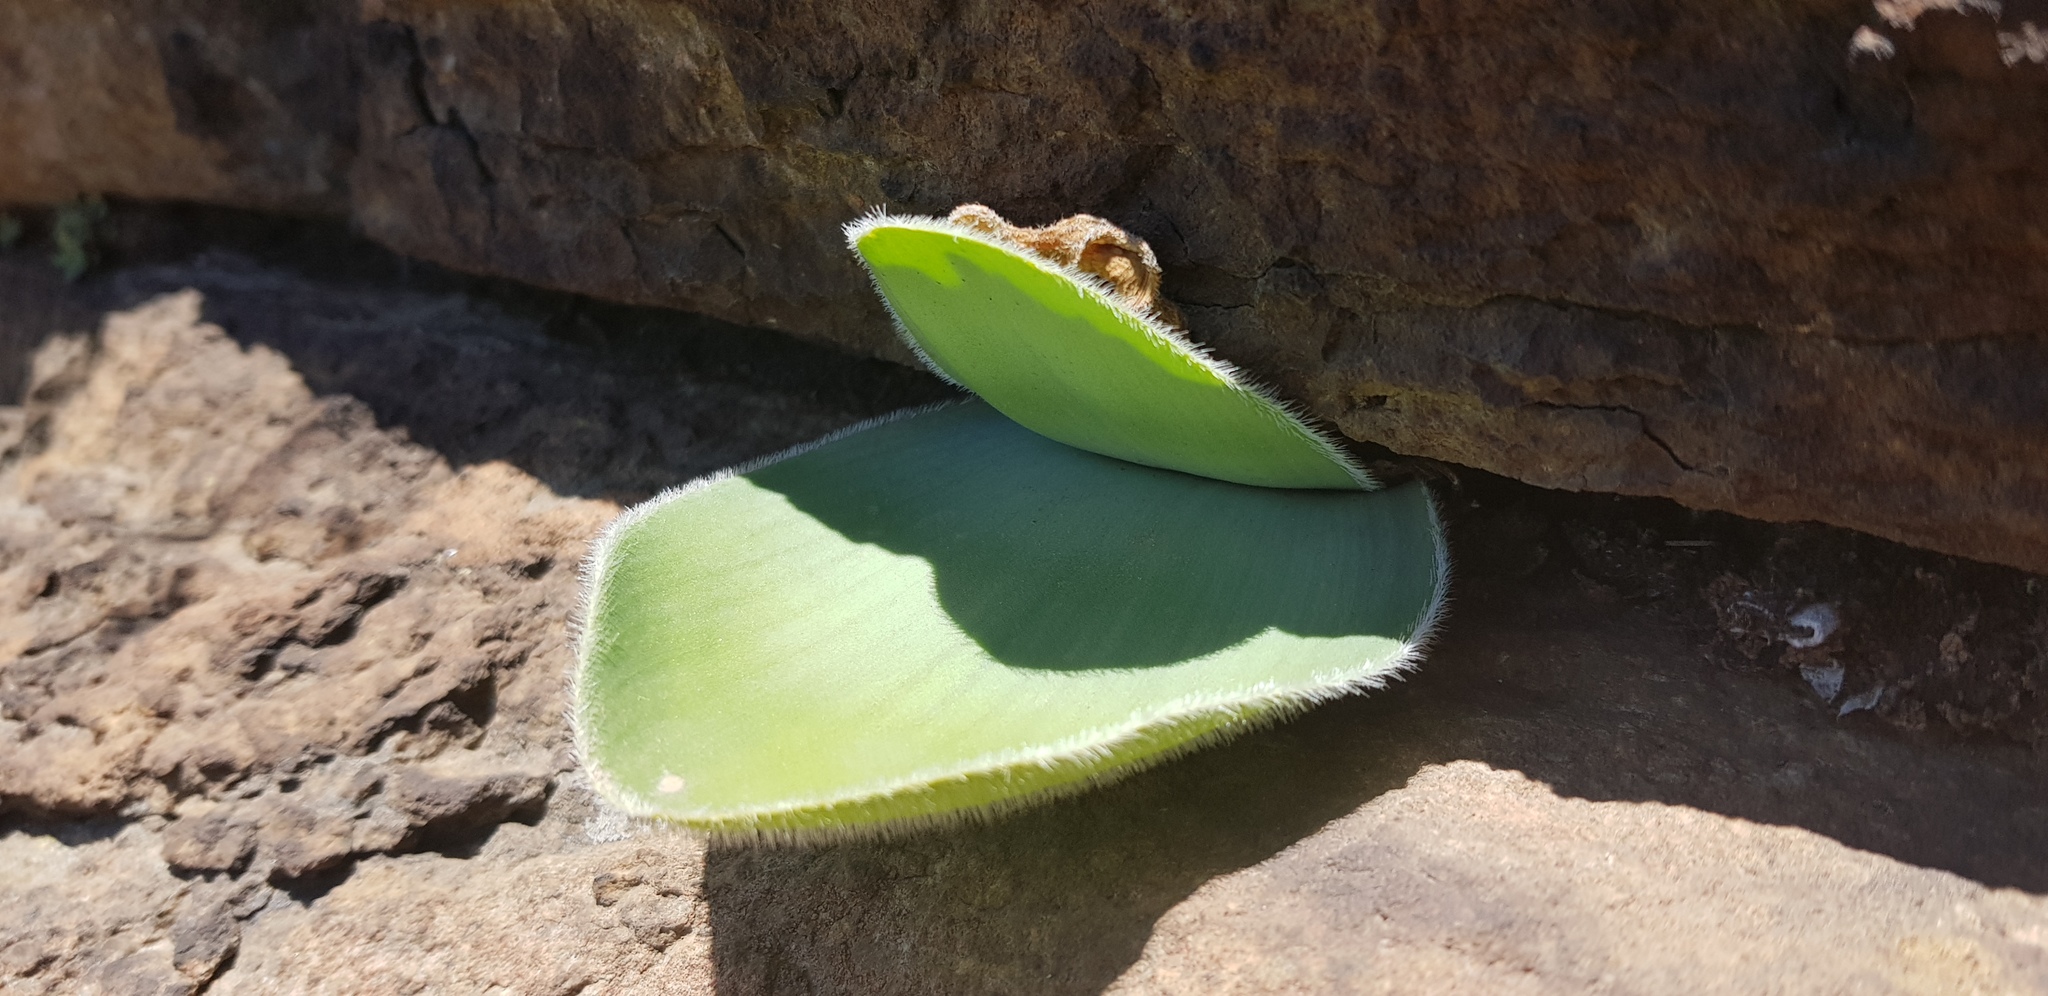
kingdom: Plantae
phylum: Tracheophyta
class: Liliopsida
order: Asparagales
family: Amaryllidaceae
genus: Haemanthus
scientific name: Haemanthus humilis
